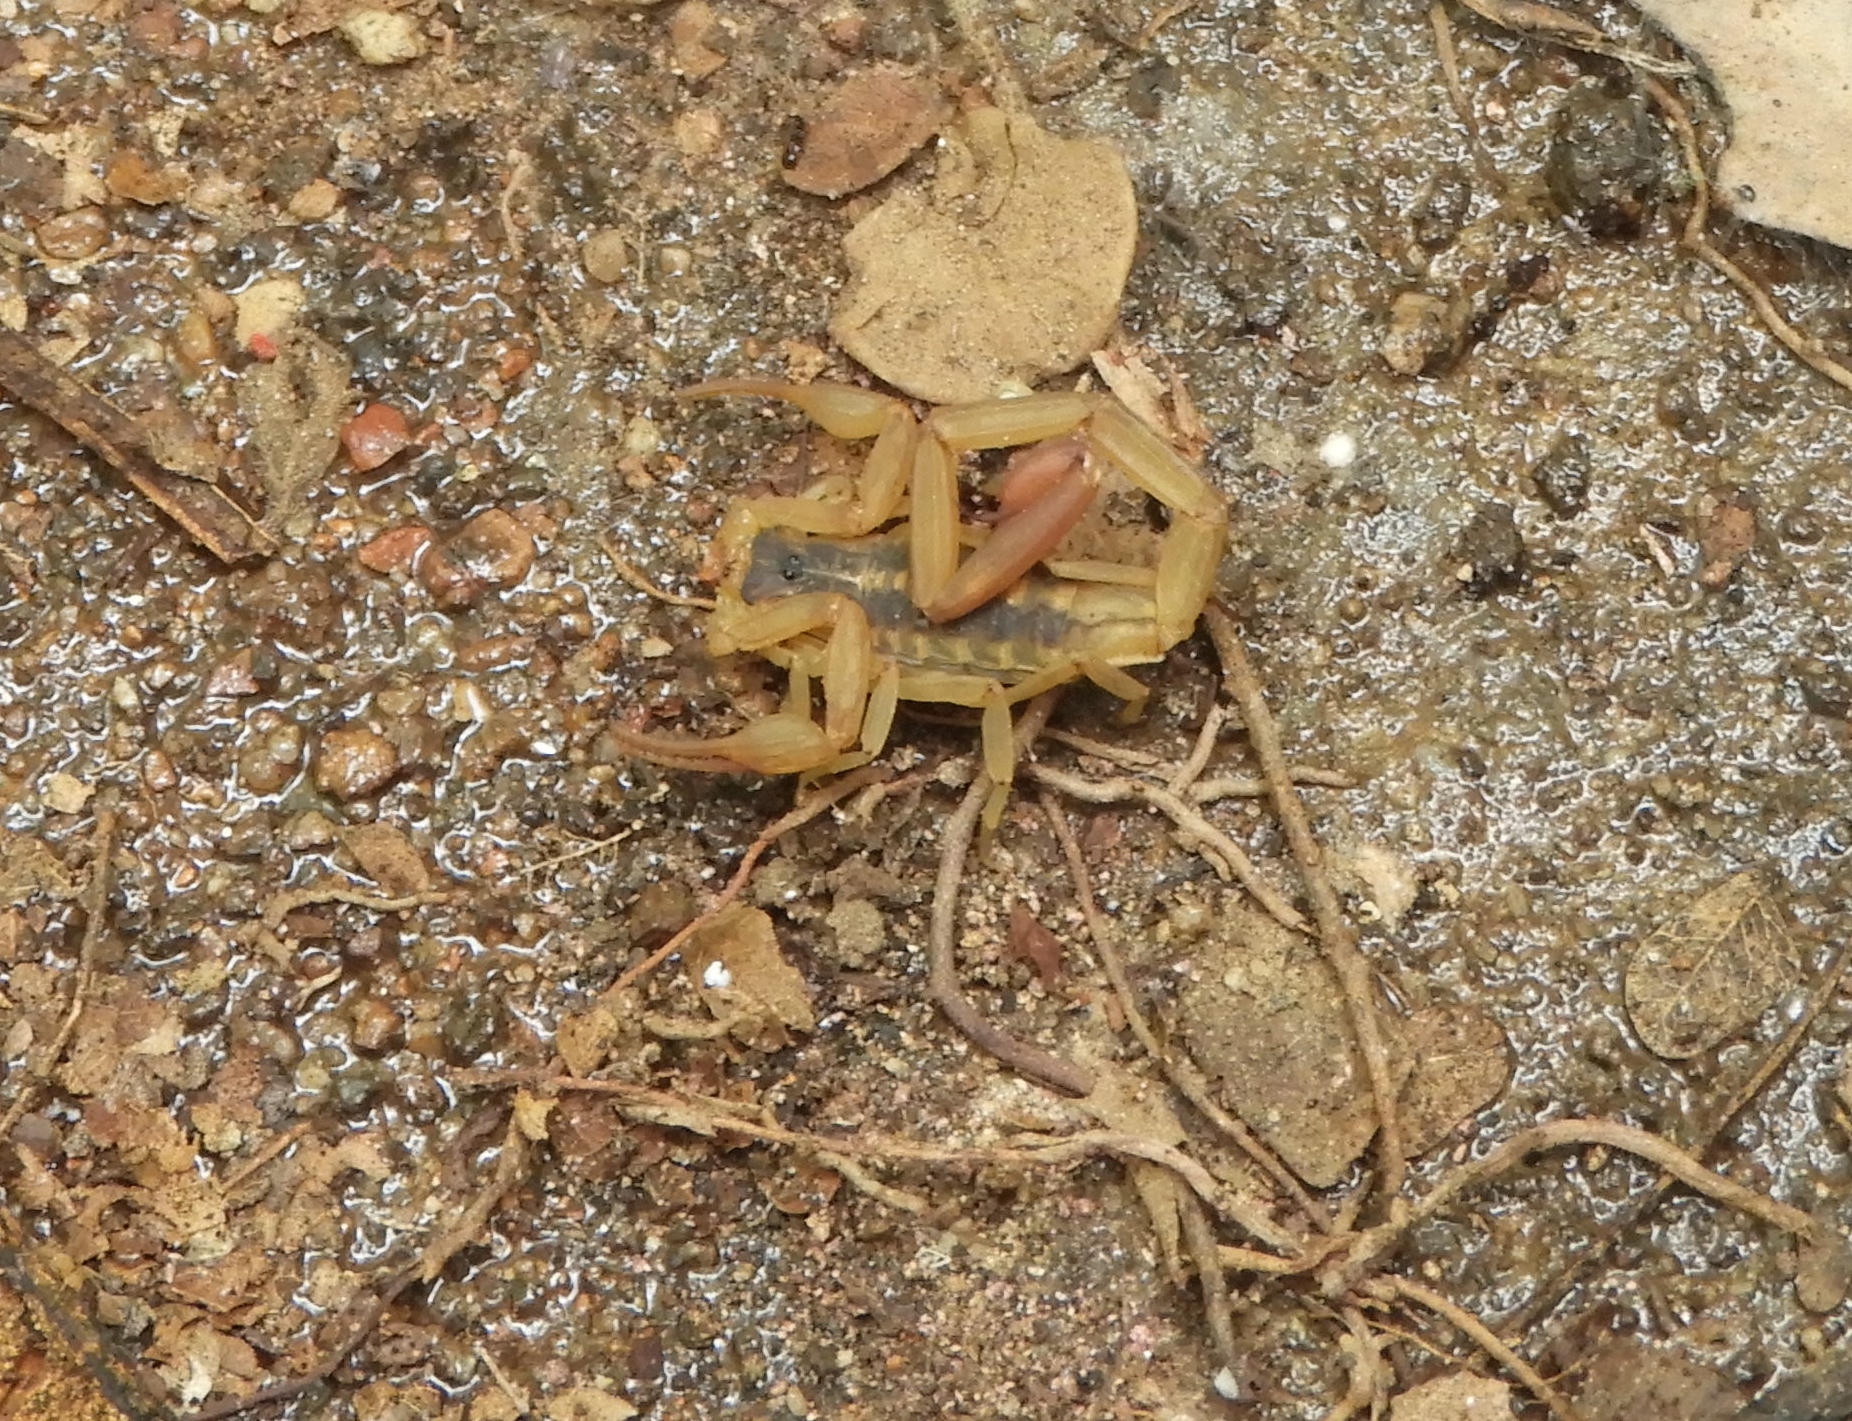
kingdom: Animalia
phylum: Arthropoda
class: Arachnida
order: Scorpiones
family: Buthidae
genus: Centruroides
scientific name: Centruroides baldazoi
